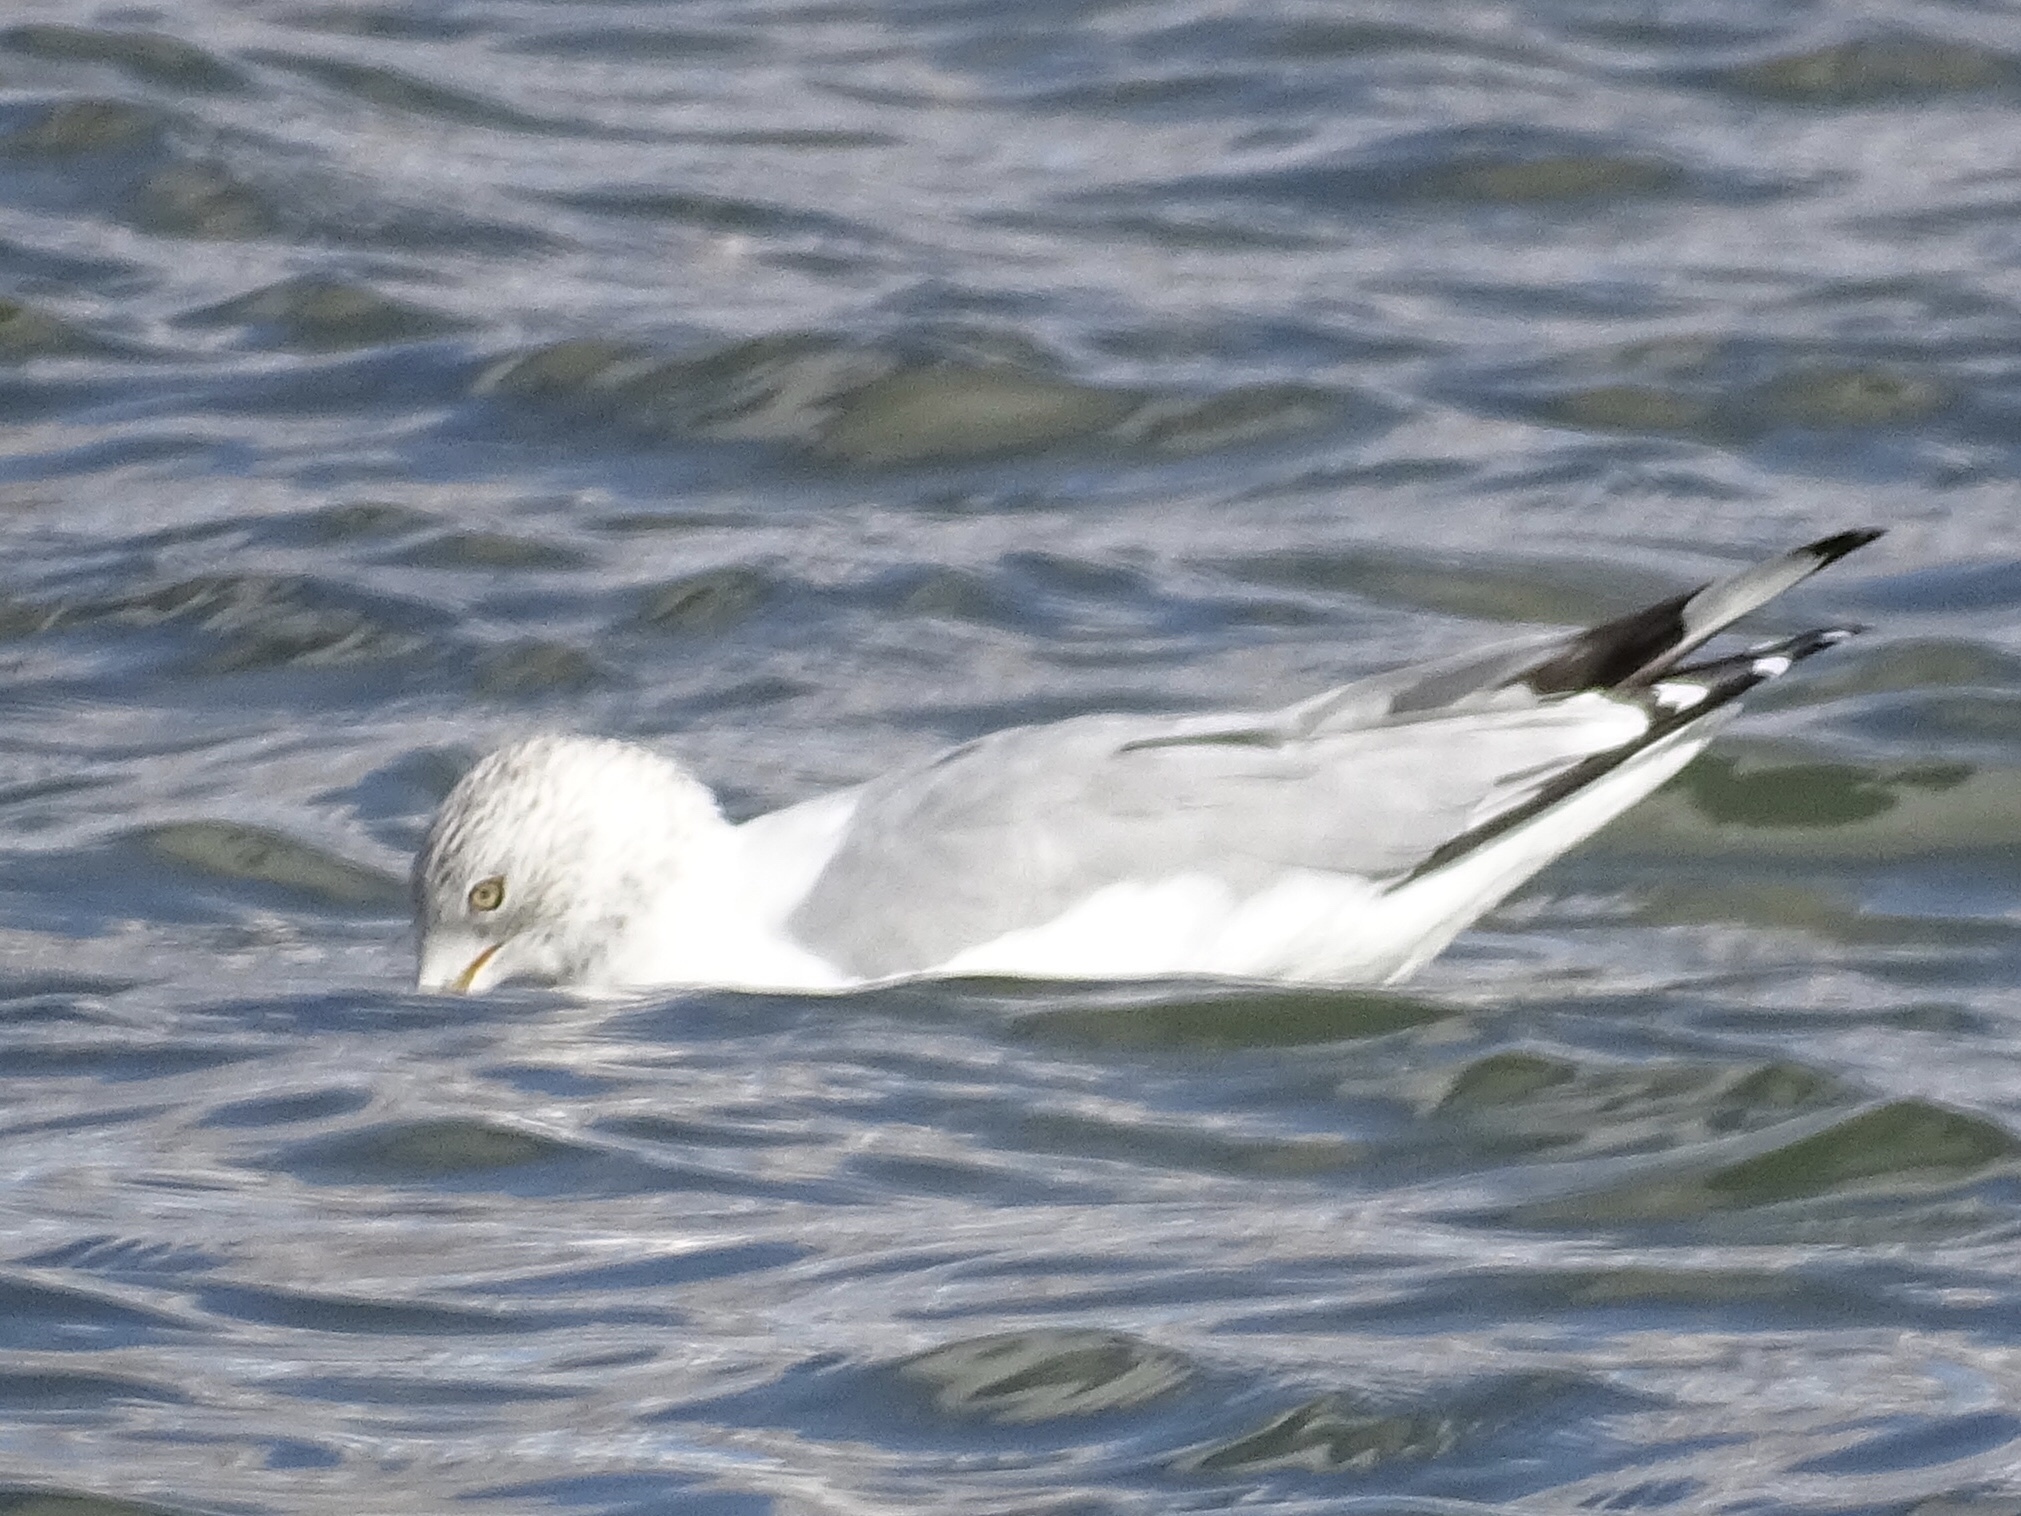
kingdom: Animalia
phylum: Chordata
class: Aves
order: Charadriiformes
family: Laridae
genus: Larus
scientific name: Larus delawarensis
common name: Ring-billed gull
